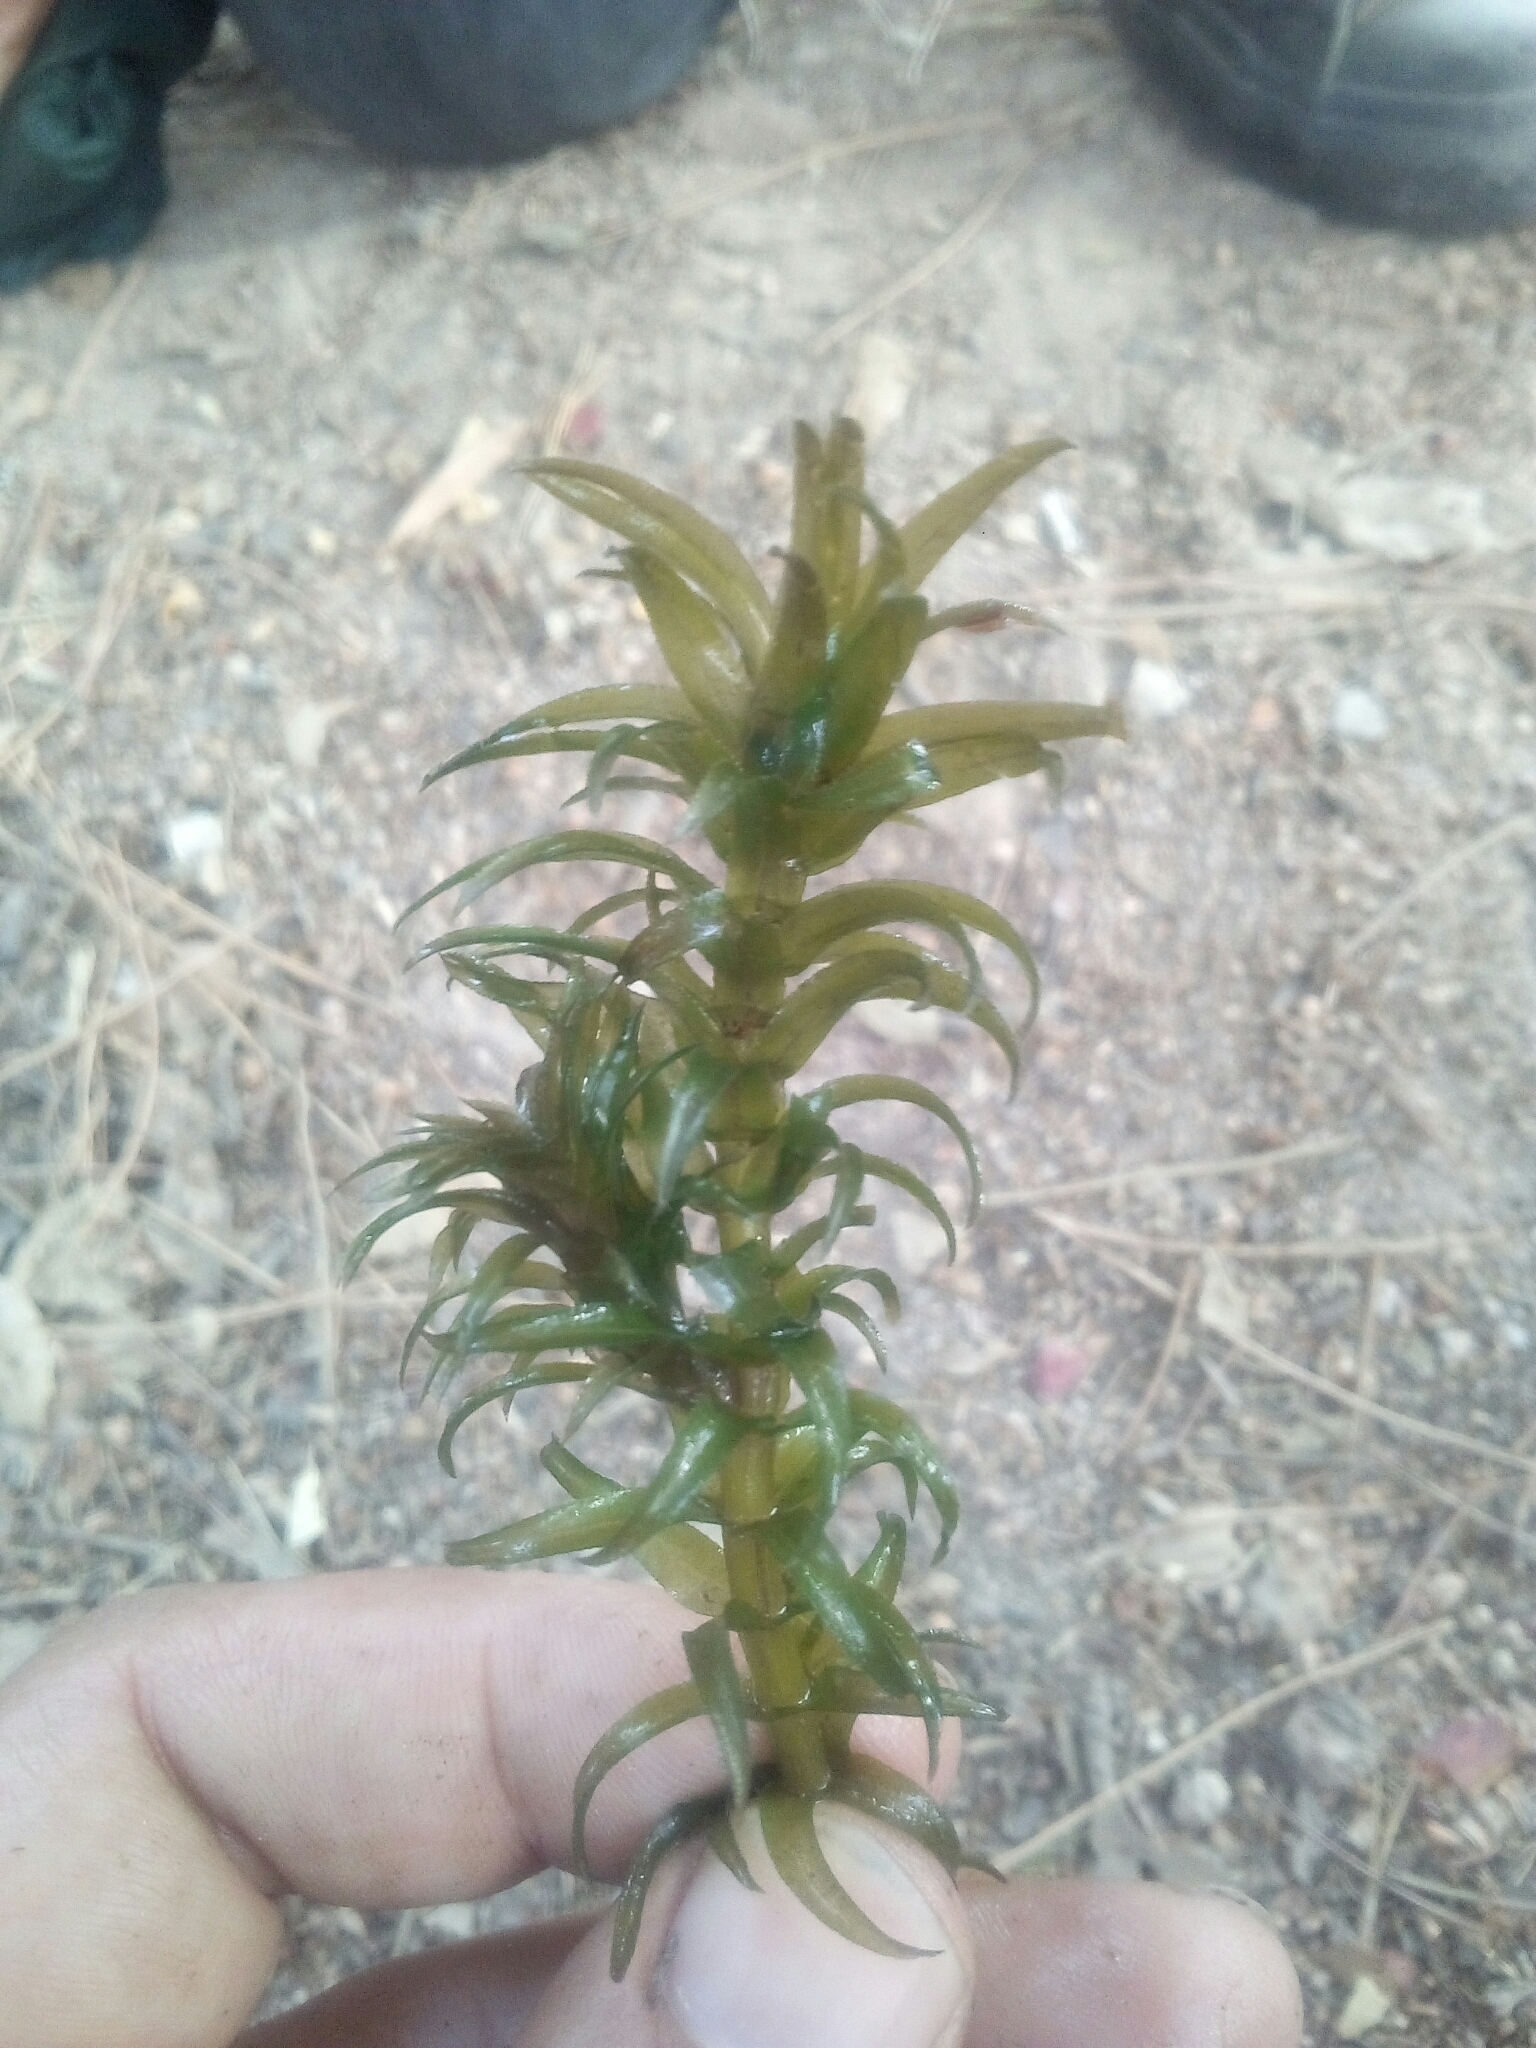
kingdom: Plantae
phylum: Tracheophyta
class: Liliopsida
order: Alismatales
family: Hydrocharitaceae
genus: Elodea
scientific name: Elodea densa
